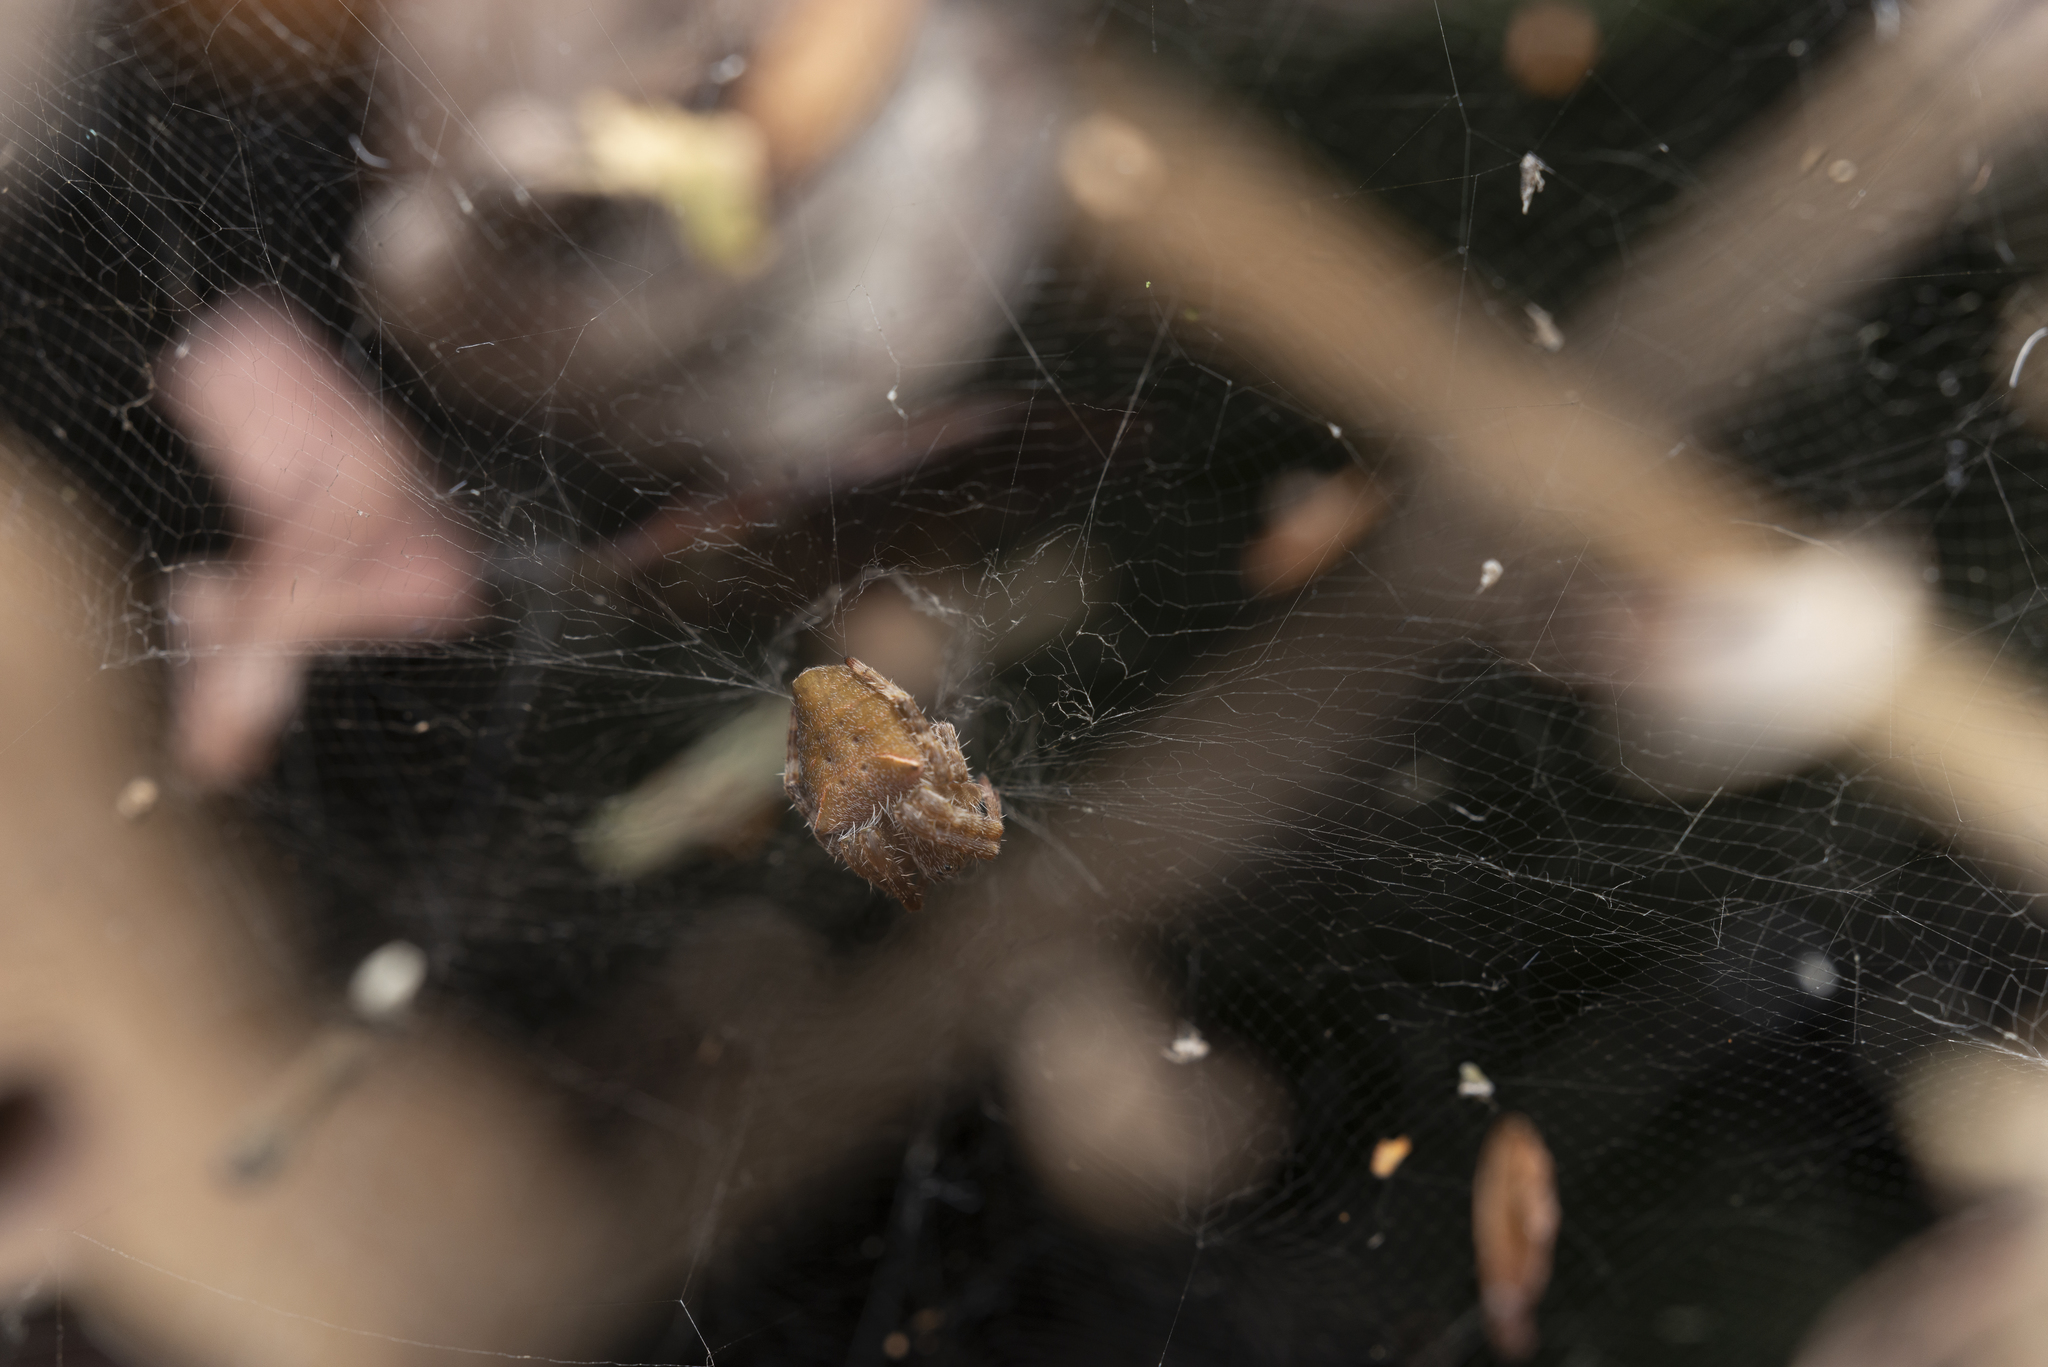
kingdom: Animalia
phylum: Arthropoda
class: Arachnida
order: Araneae
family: Araneidae
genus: Cyrtophora
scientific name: Cyrtophora unicolor
